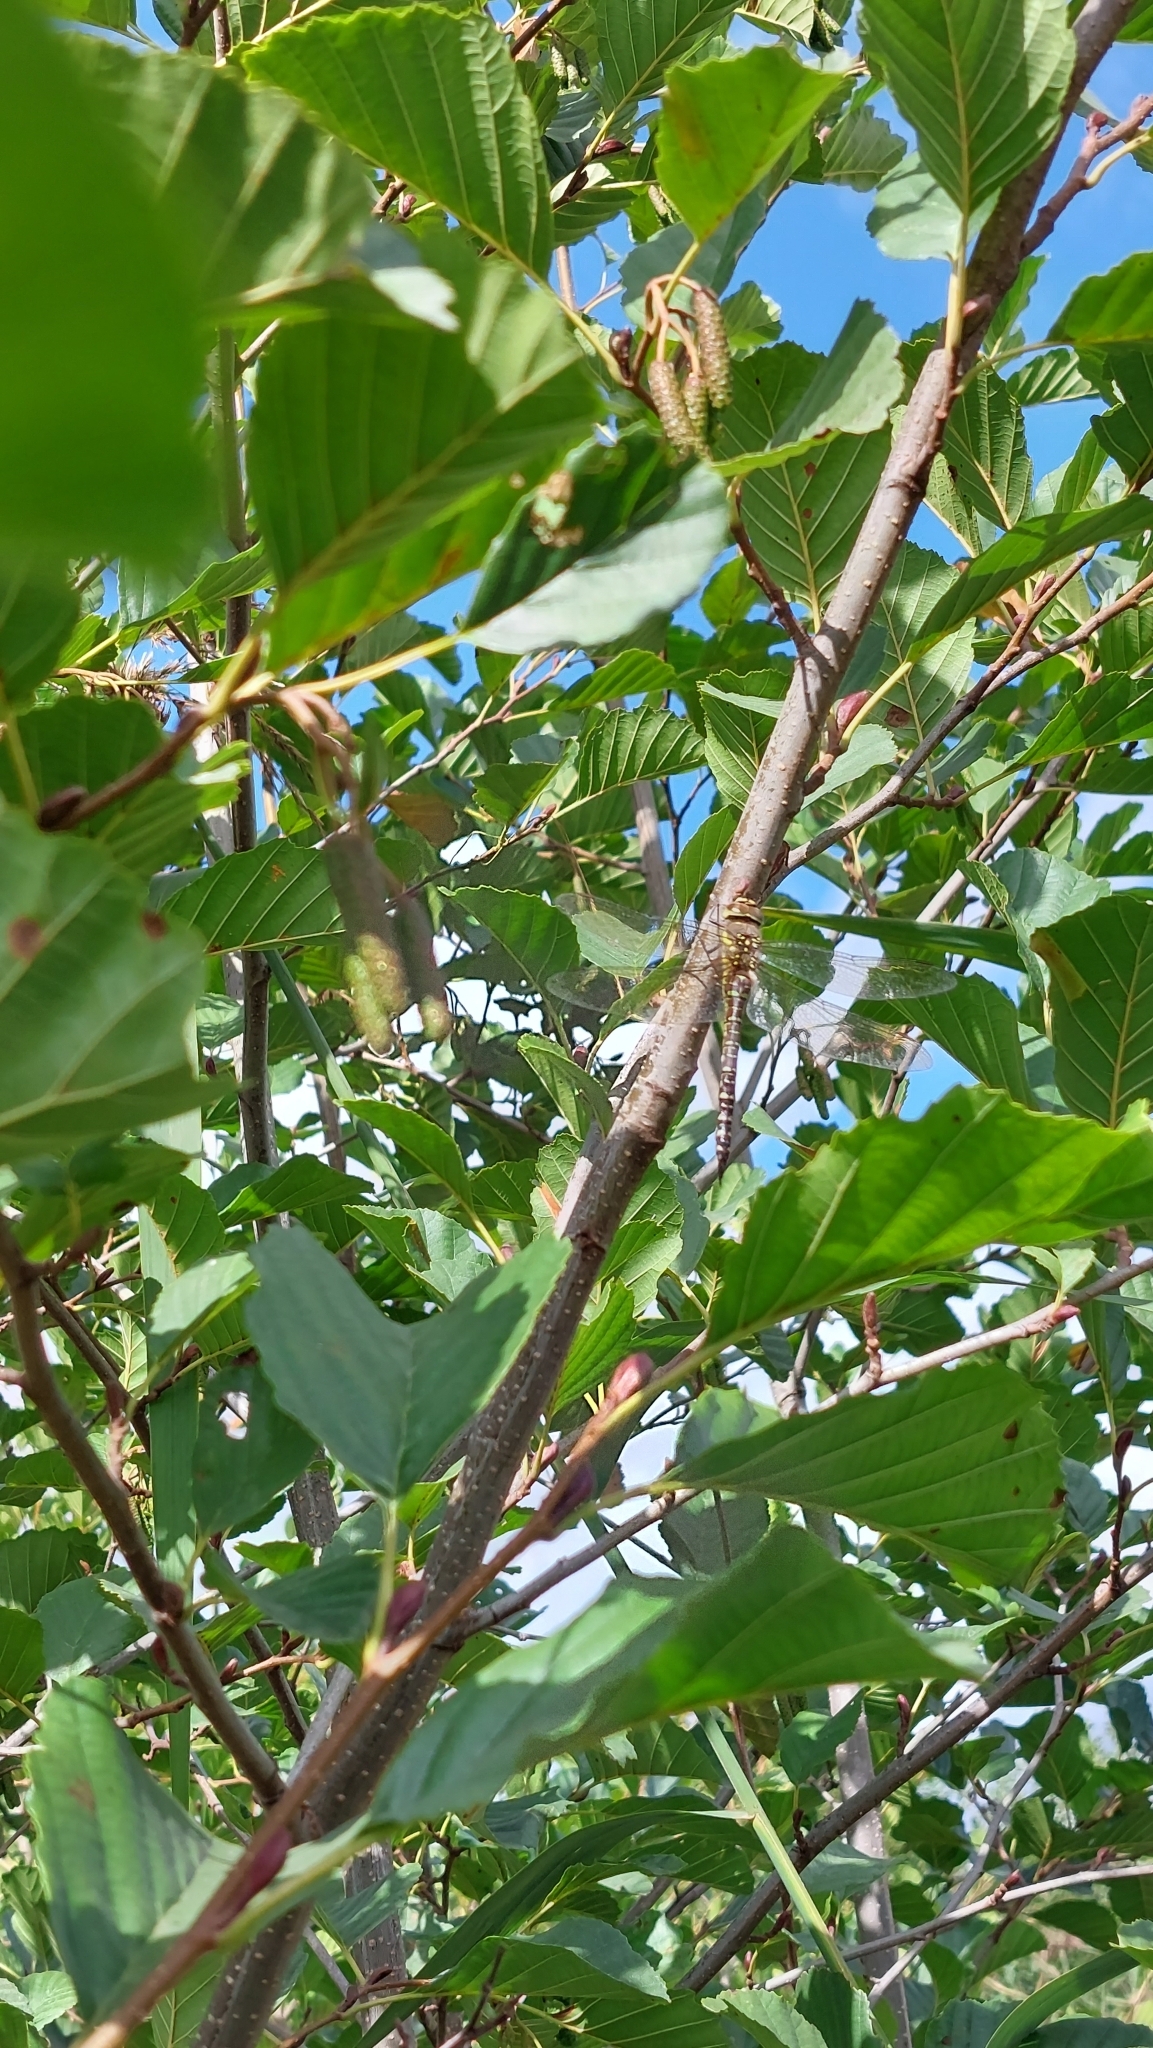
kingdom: Animalia
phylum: Arthropoda
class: Insecta
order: Odonata
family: Aeshnidae
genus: Aeshna
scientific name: Aeshna mixta
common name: Migrant hawker
